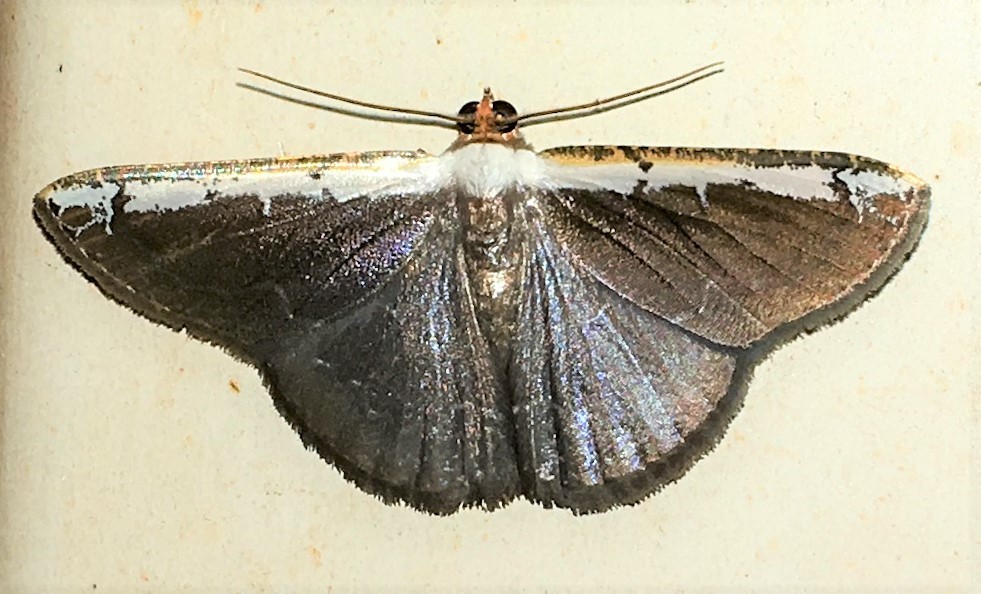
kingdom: Animalia
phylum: Arthropoda
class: Insecta
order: Lepidoptera
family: Geometridae
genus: Hemiphricta
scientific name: Hemiphricta albicostata
